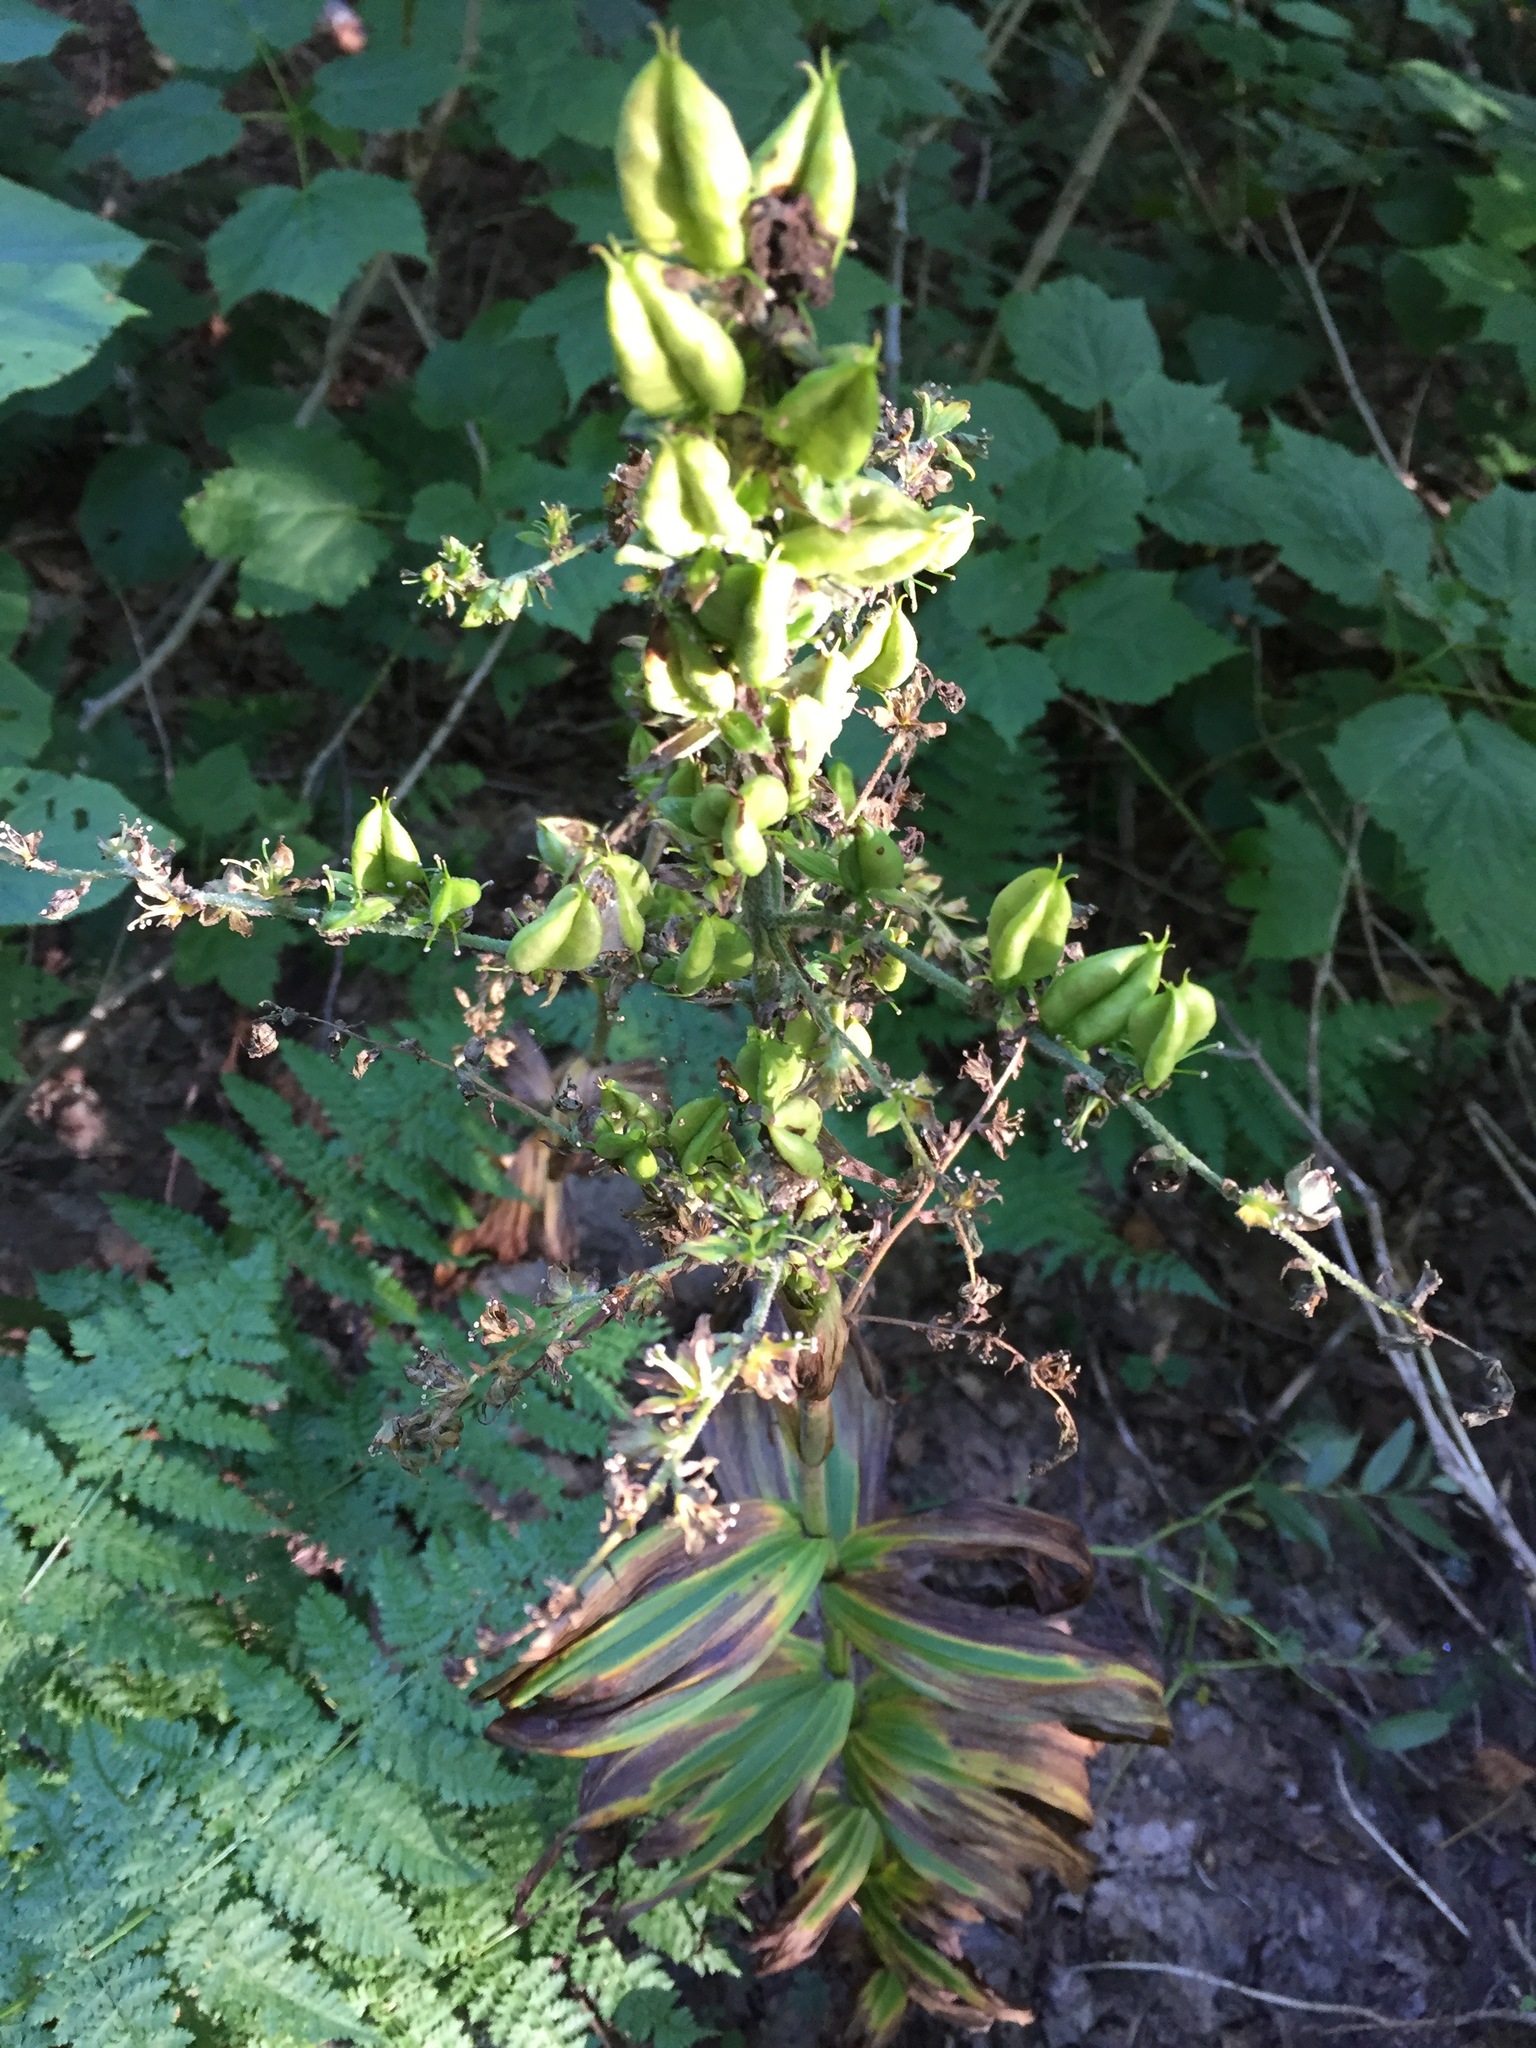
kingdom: Plantae
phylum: Tracheophyta
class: Liliopsida
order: Liliales
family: Melanthiaceae
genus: Veratrum
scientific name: Veratrum viride
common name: American false hellebore
